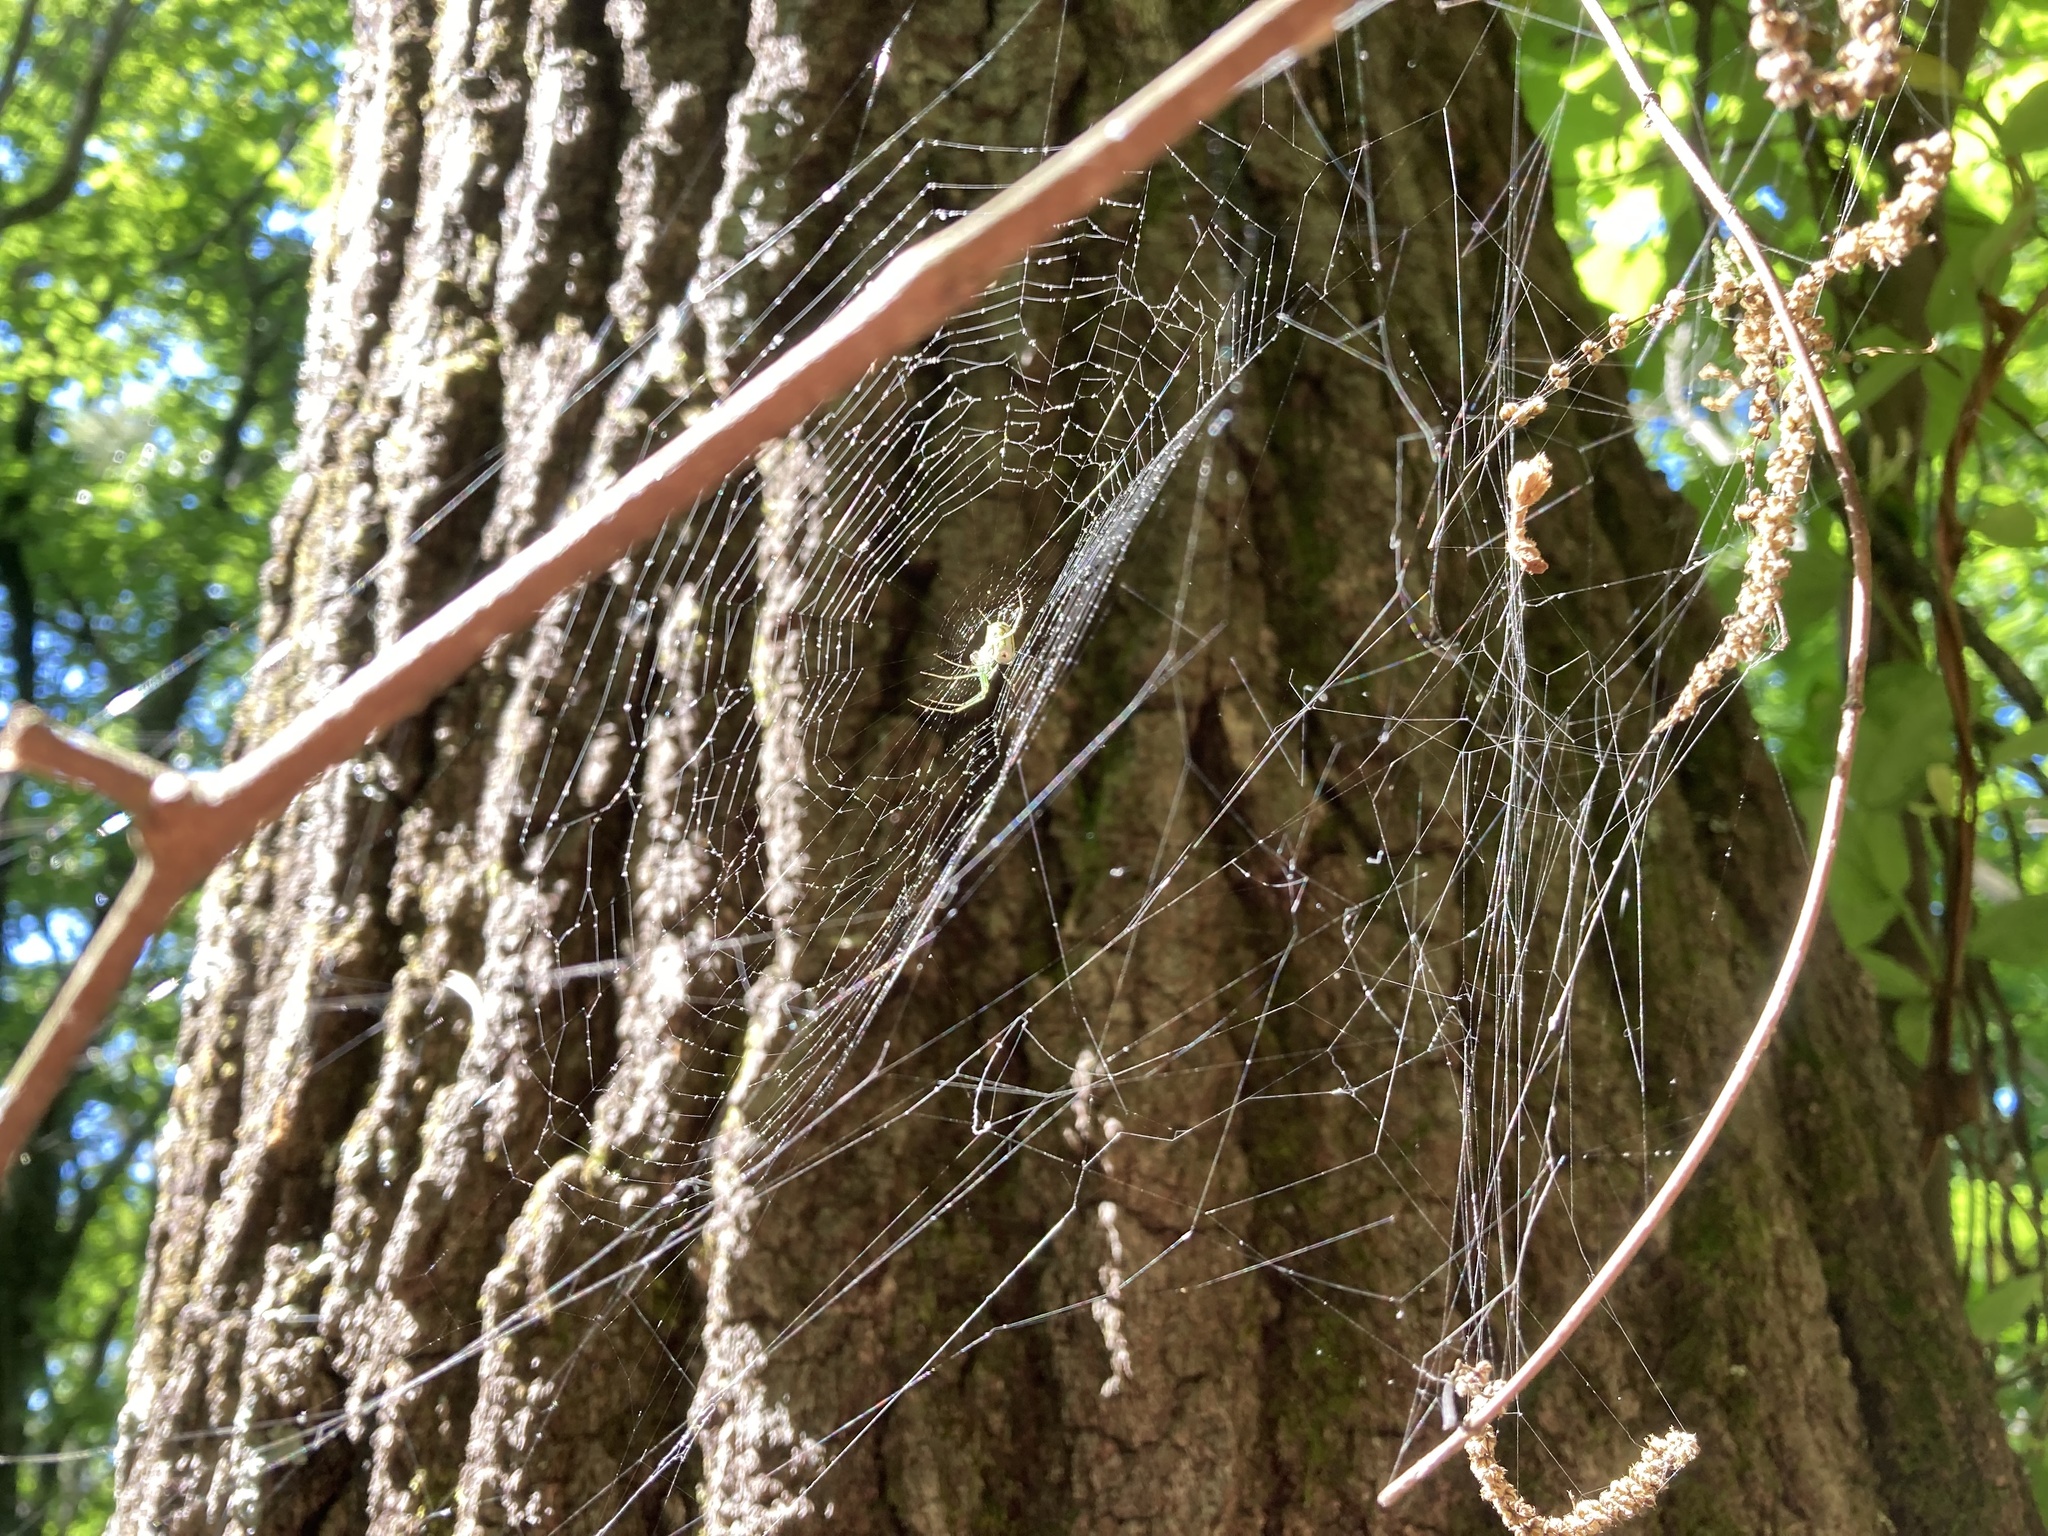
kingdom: Animalia
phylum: Arthropoda
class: Arachnida
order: Araneae
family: Tetragnathidae
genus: Leucauge
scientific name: Leucauge venusta
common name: Longjawed orb weavers
